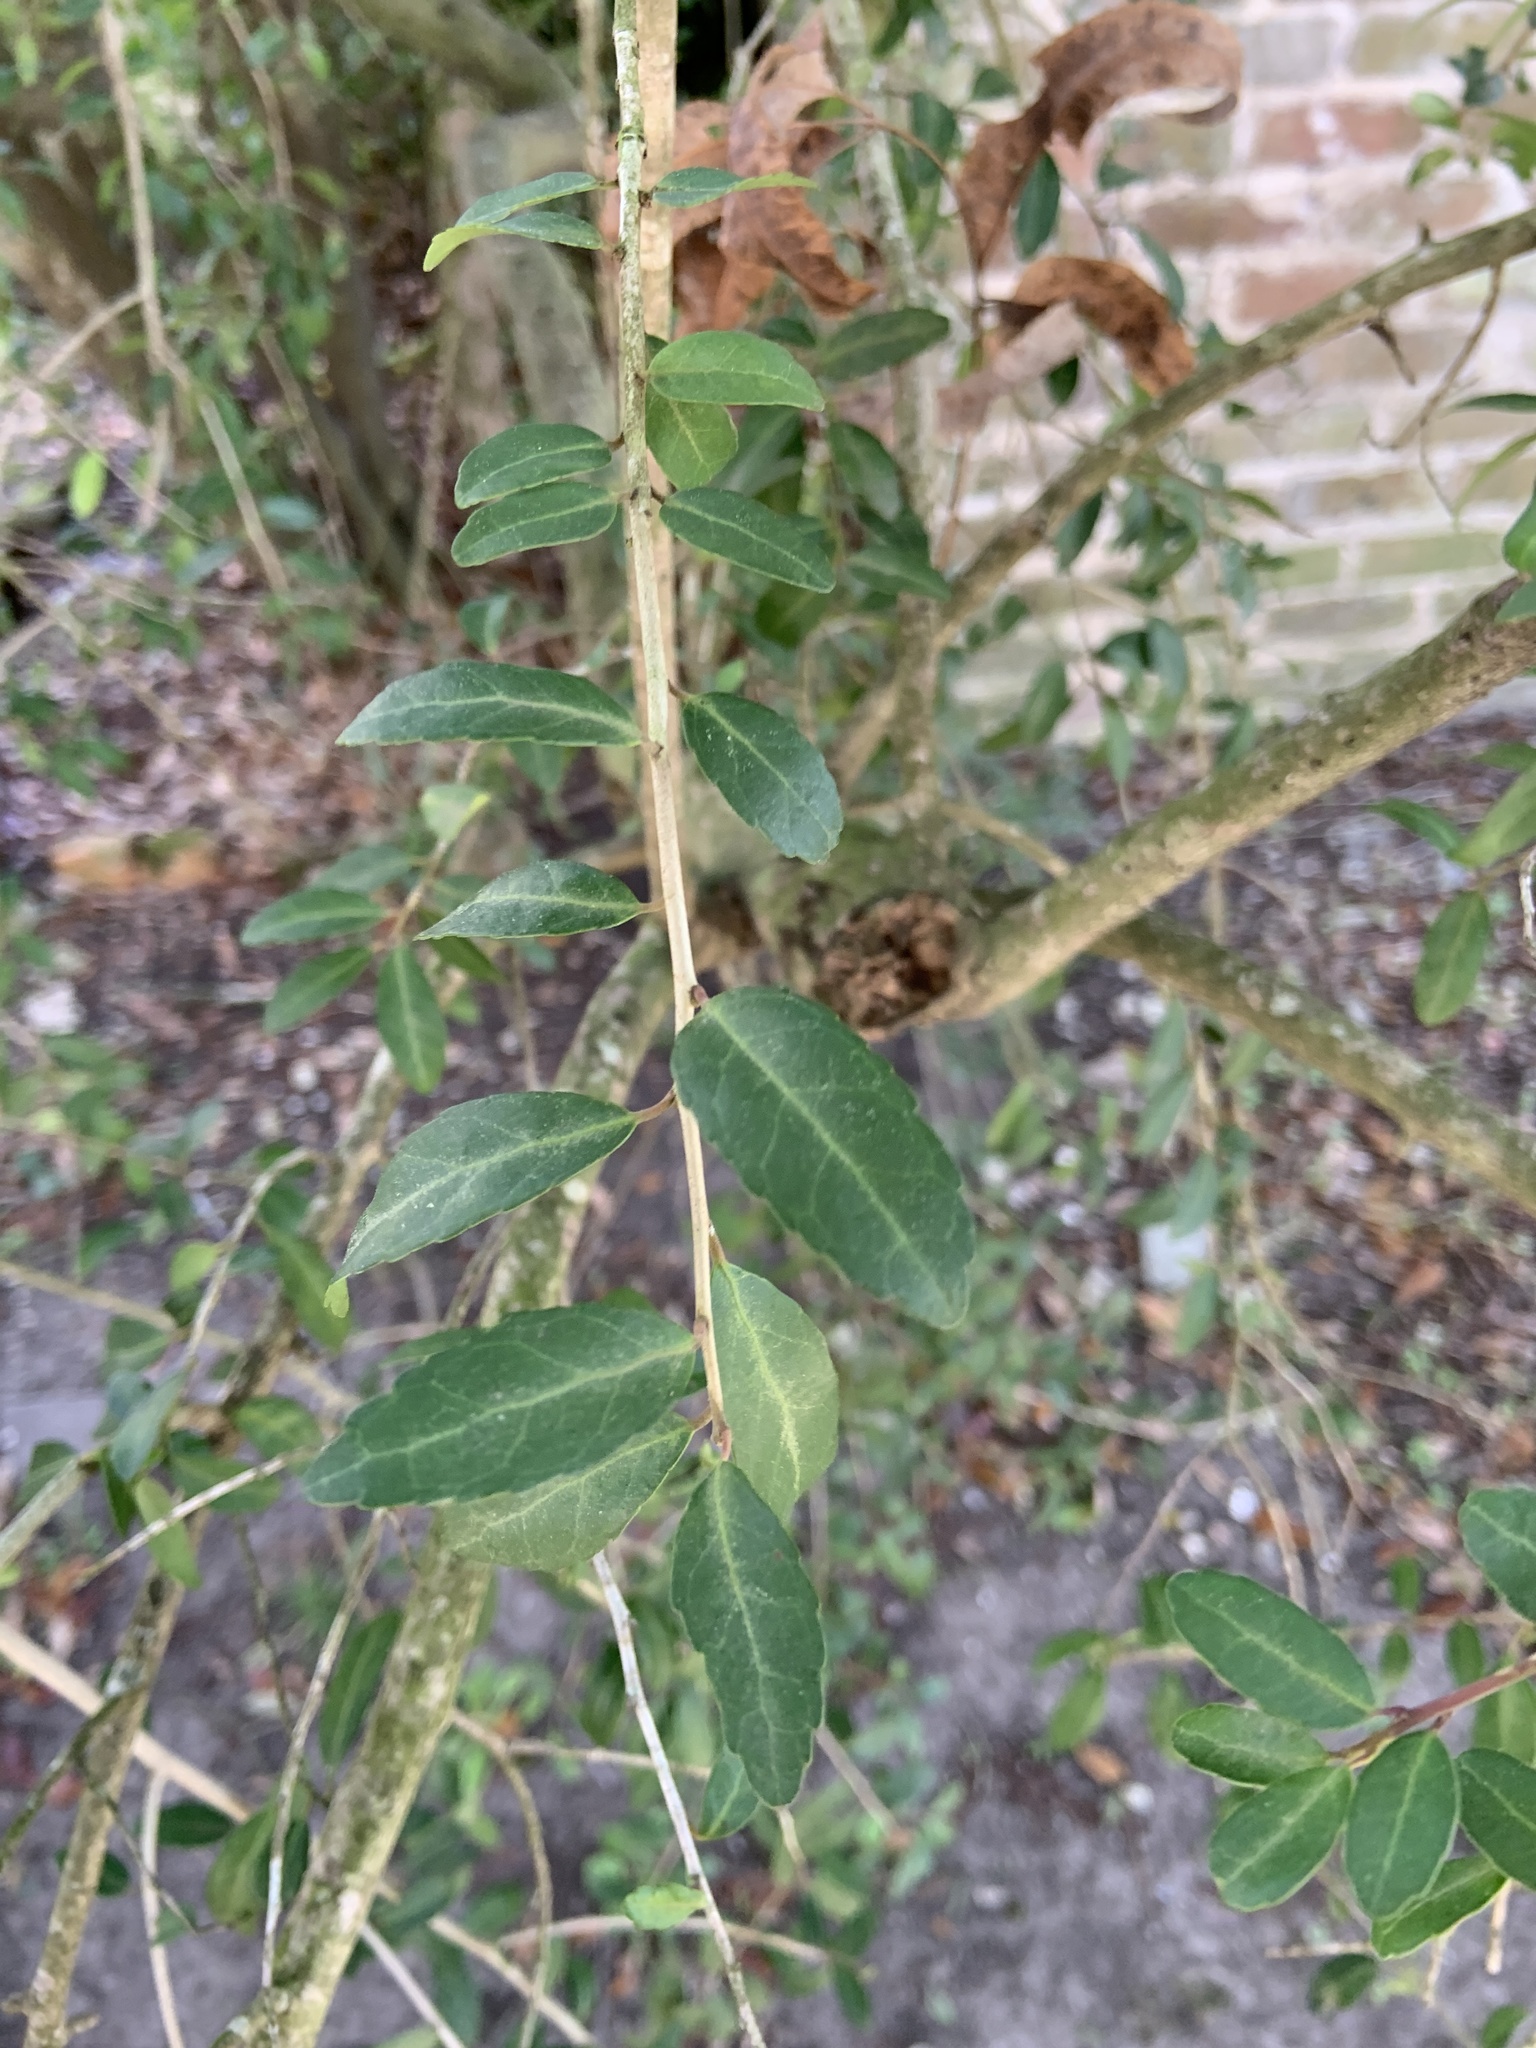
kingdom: Plantae
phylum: Tracheophyta
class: Magnoliopsida
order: Aquifoliales
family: Aquifoliaceae
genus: Ilex
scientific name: Ilex vomitoria
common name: Yaupon holly
